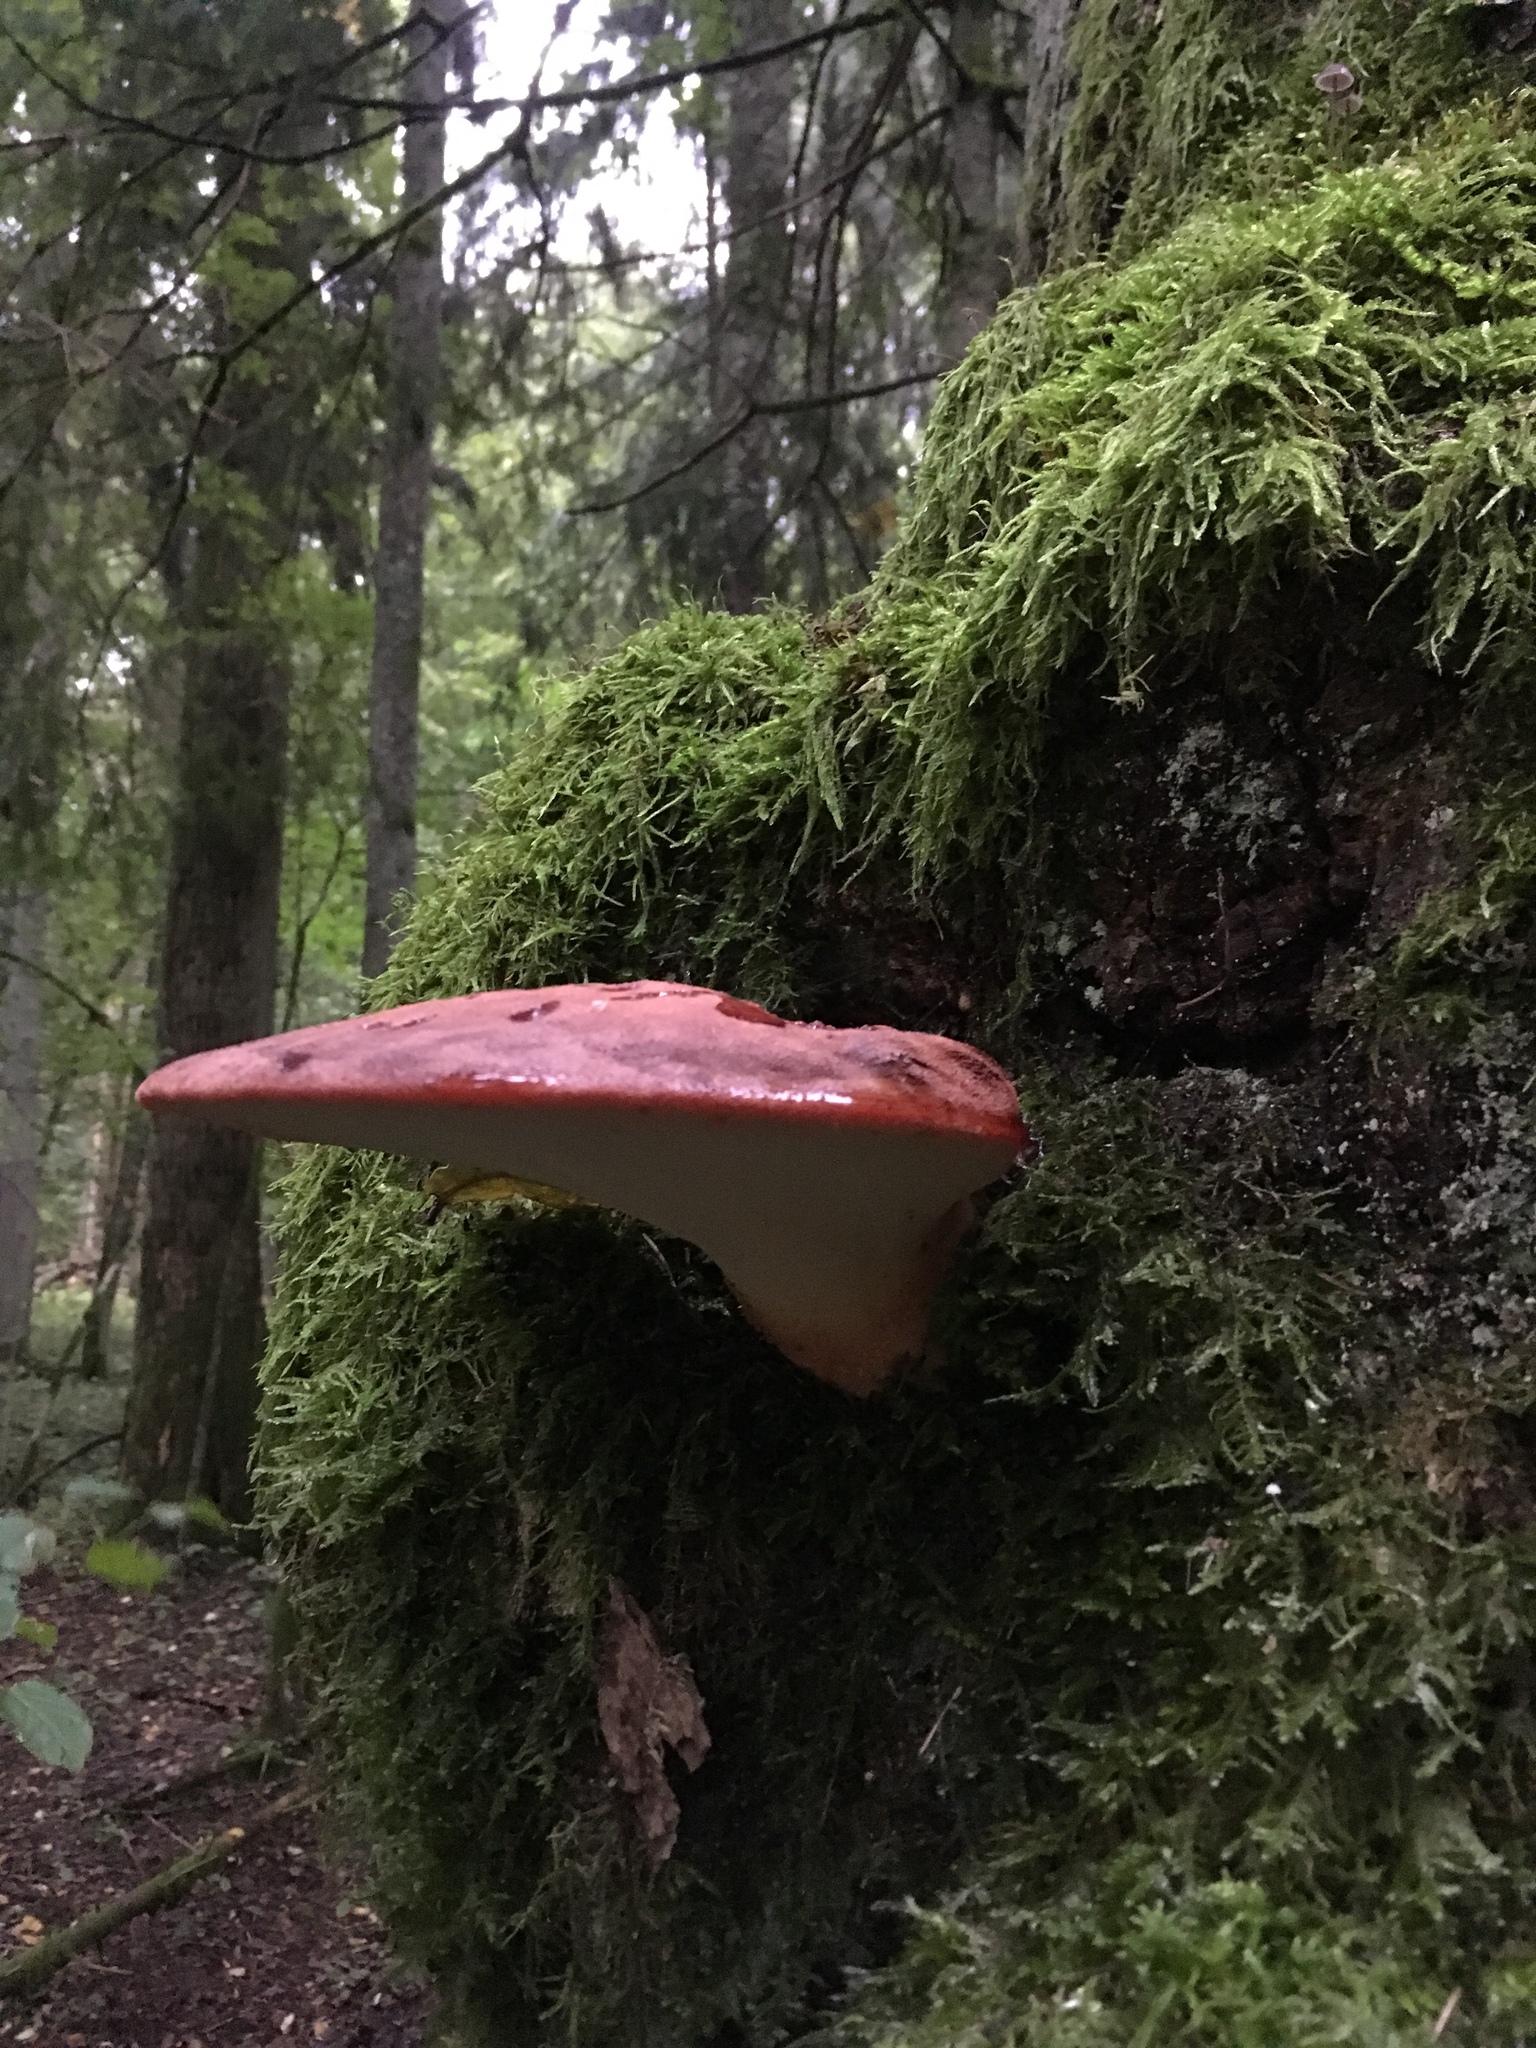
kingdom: Fungi
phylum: Basidiomycota
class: Agaricomycetes
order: Agaricales
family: Fistulinaceae
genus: Fistulina
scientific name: Fistulina hepatica
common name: Beef-steak fungus
